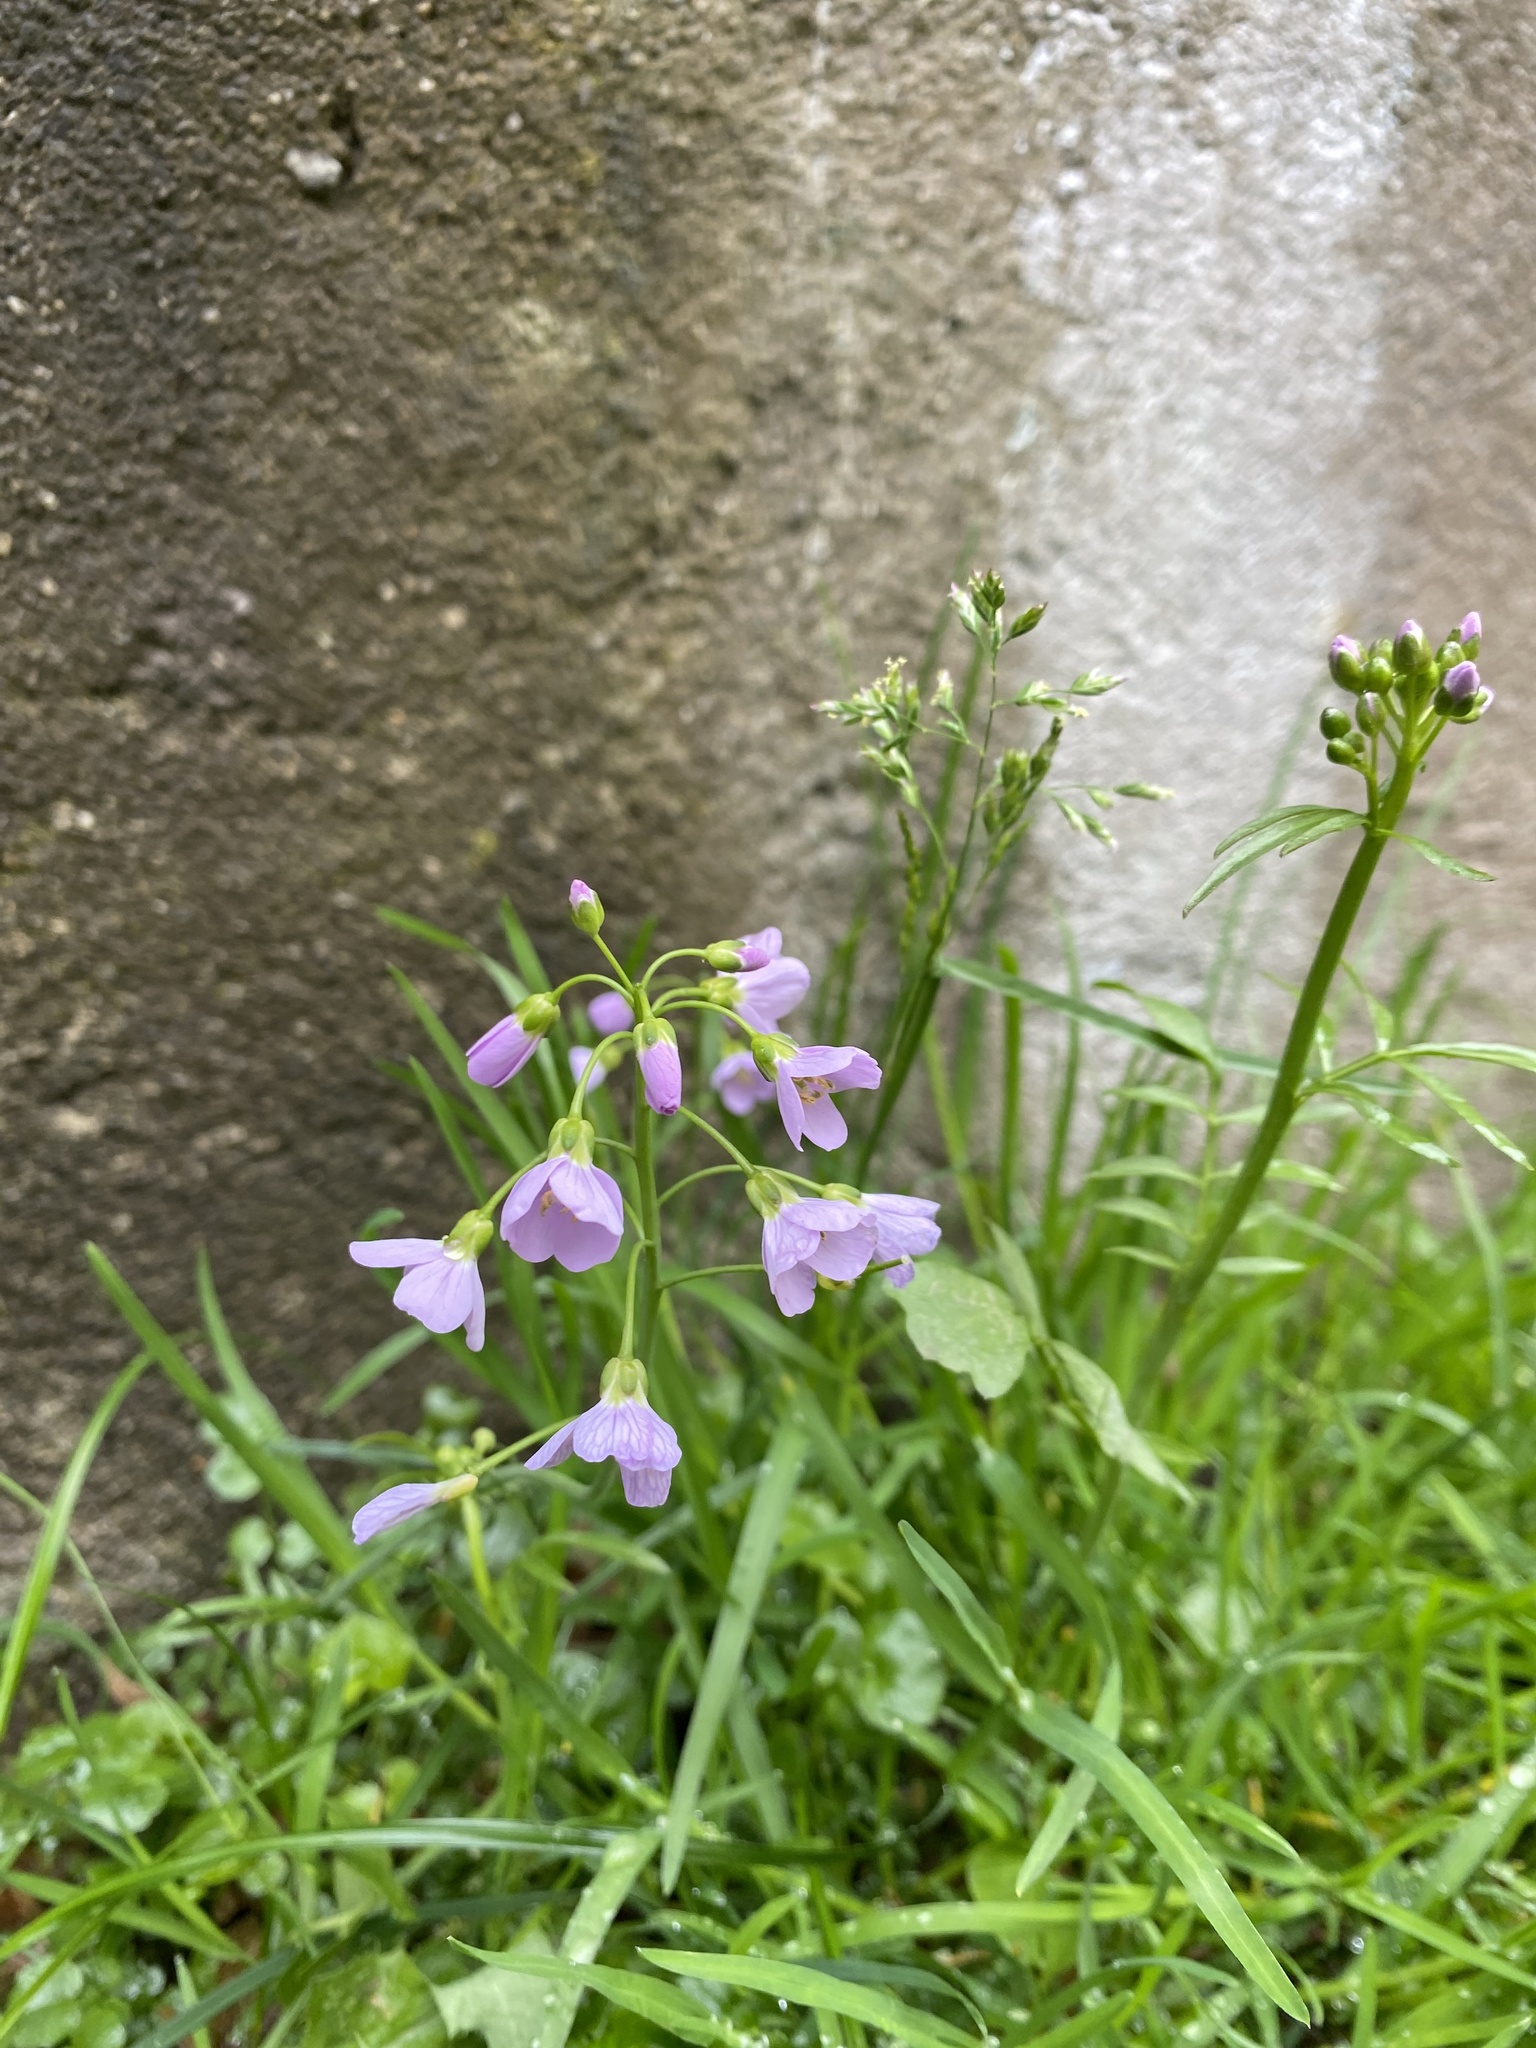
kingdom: Plantae
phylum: Tracheophyta
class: Magnoliopsida
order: Brassicales
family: Brassicaceae
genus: Cardamine
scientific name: Cardamine pratensis
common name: Cuckoo flower
